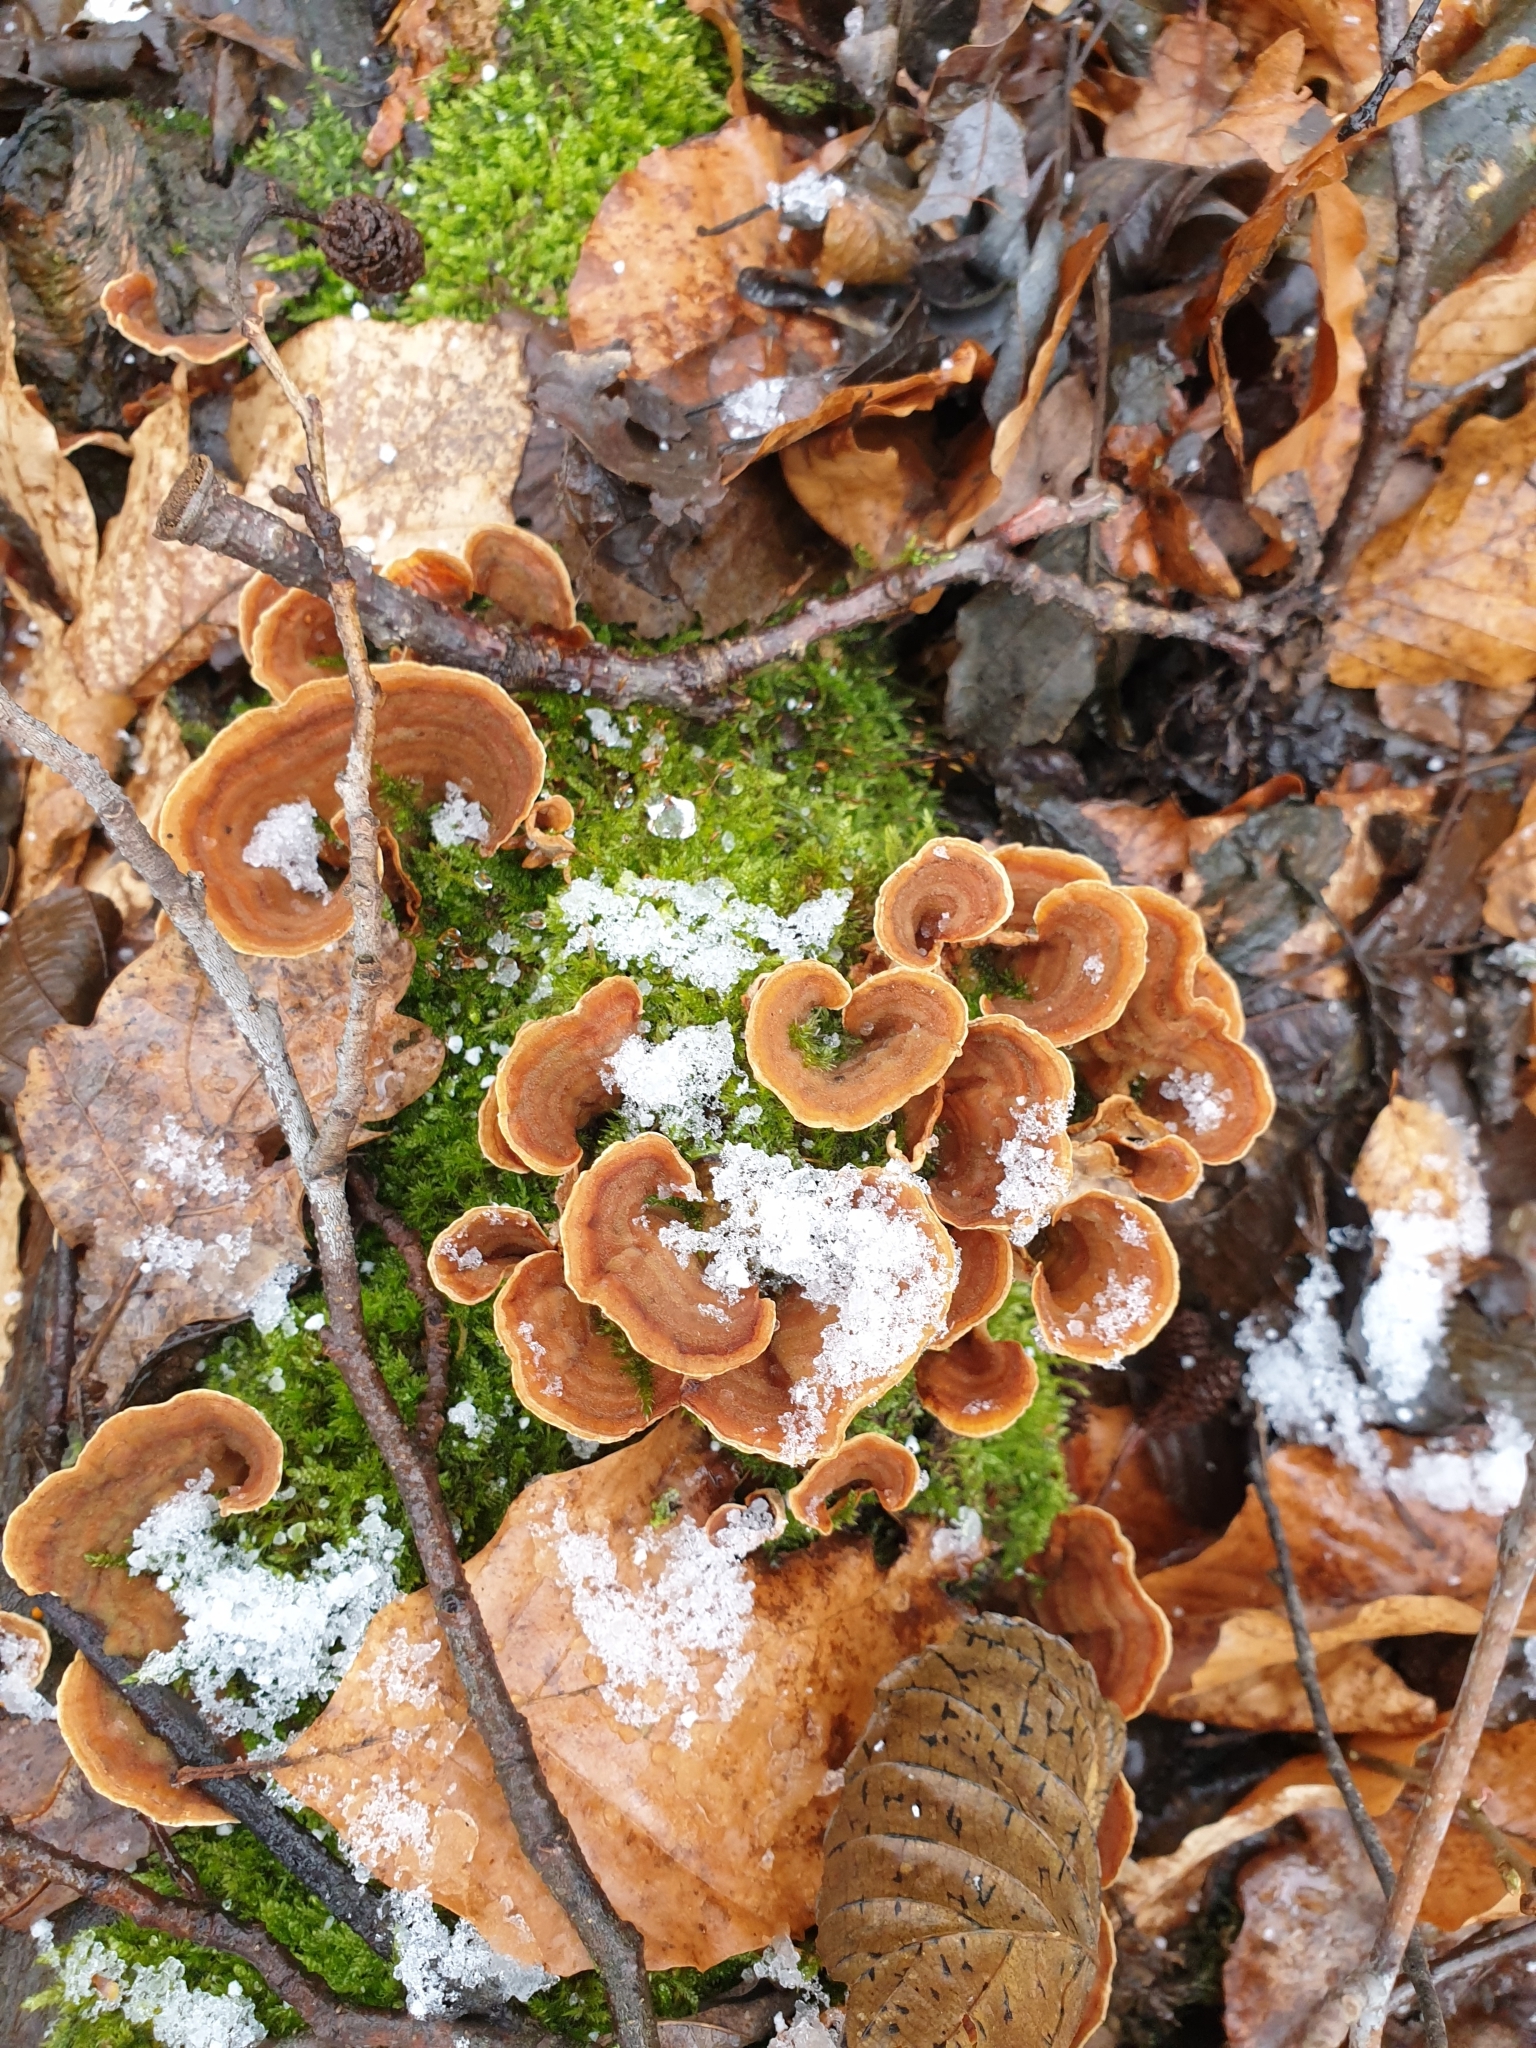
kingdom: Fungi
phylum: Basidiomycota
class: Agaricomycetes
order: Russulales
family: Stereaceae
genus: Stereum
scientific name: Stereum hirsutum
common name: Hairy curtain crust
